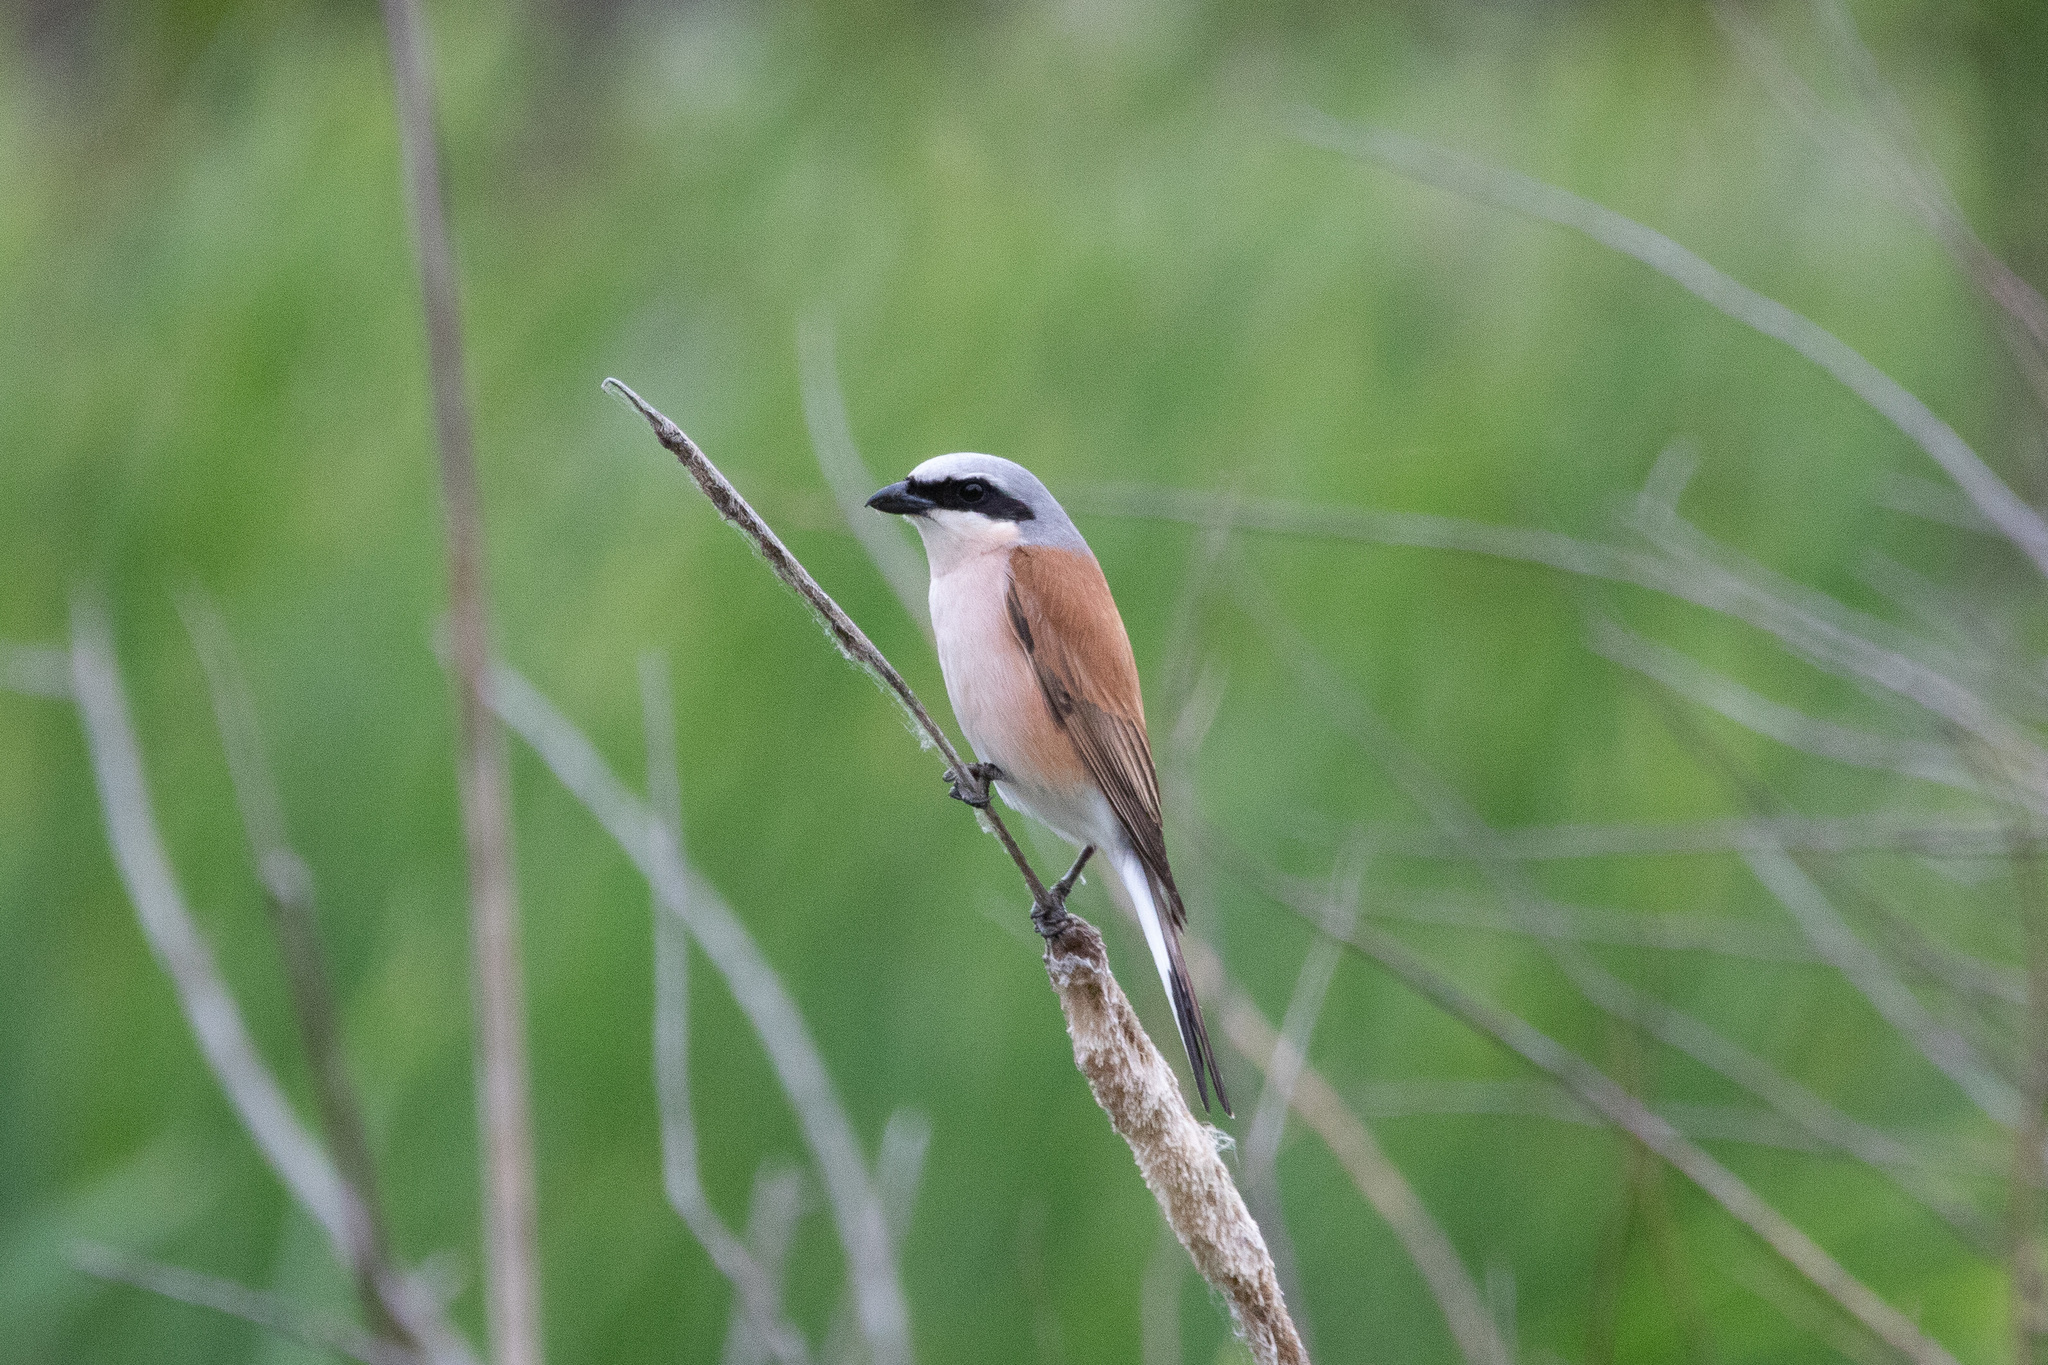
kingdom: Animalia
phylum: Chordata
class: Aves
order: Passeriformes
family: Laniidae
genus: Lanius
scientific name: Lanius collurio
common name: Red-backed shrike
